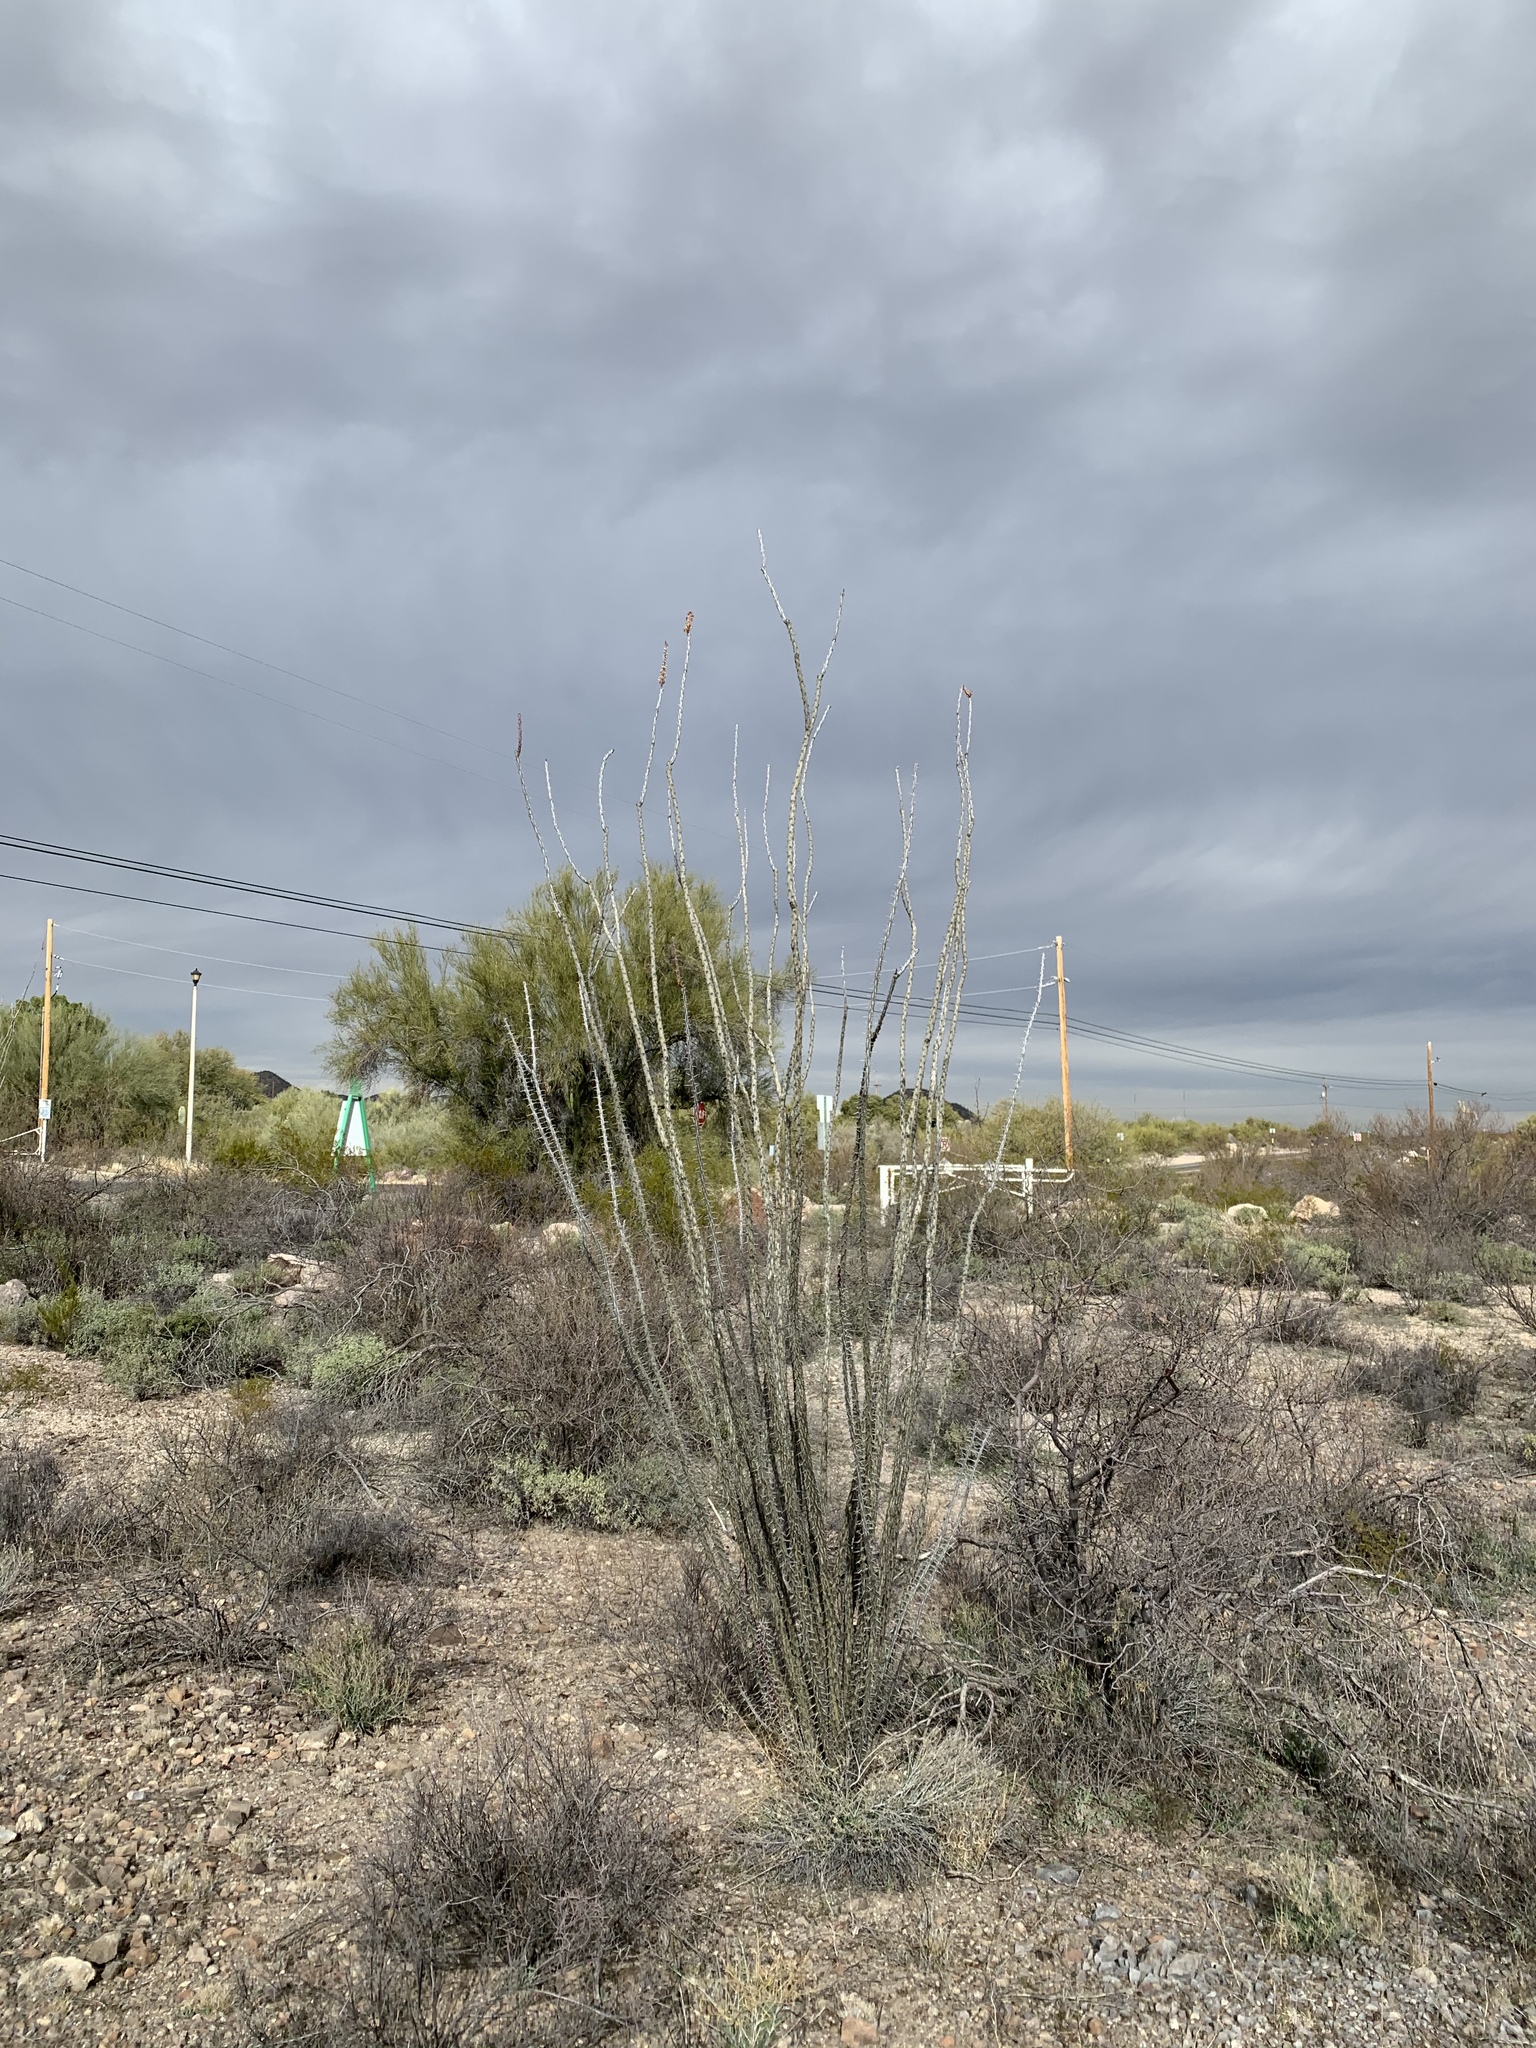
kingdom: Plantae
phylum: Tracheophyta
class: Magnoliopsida
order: Ericales
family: Fouquieriaceae
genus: Fouquieria
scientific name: Fouquieria splendens
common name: Vine-cactus
